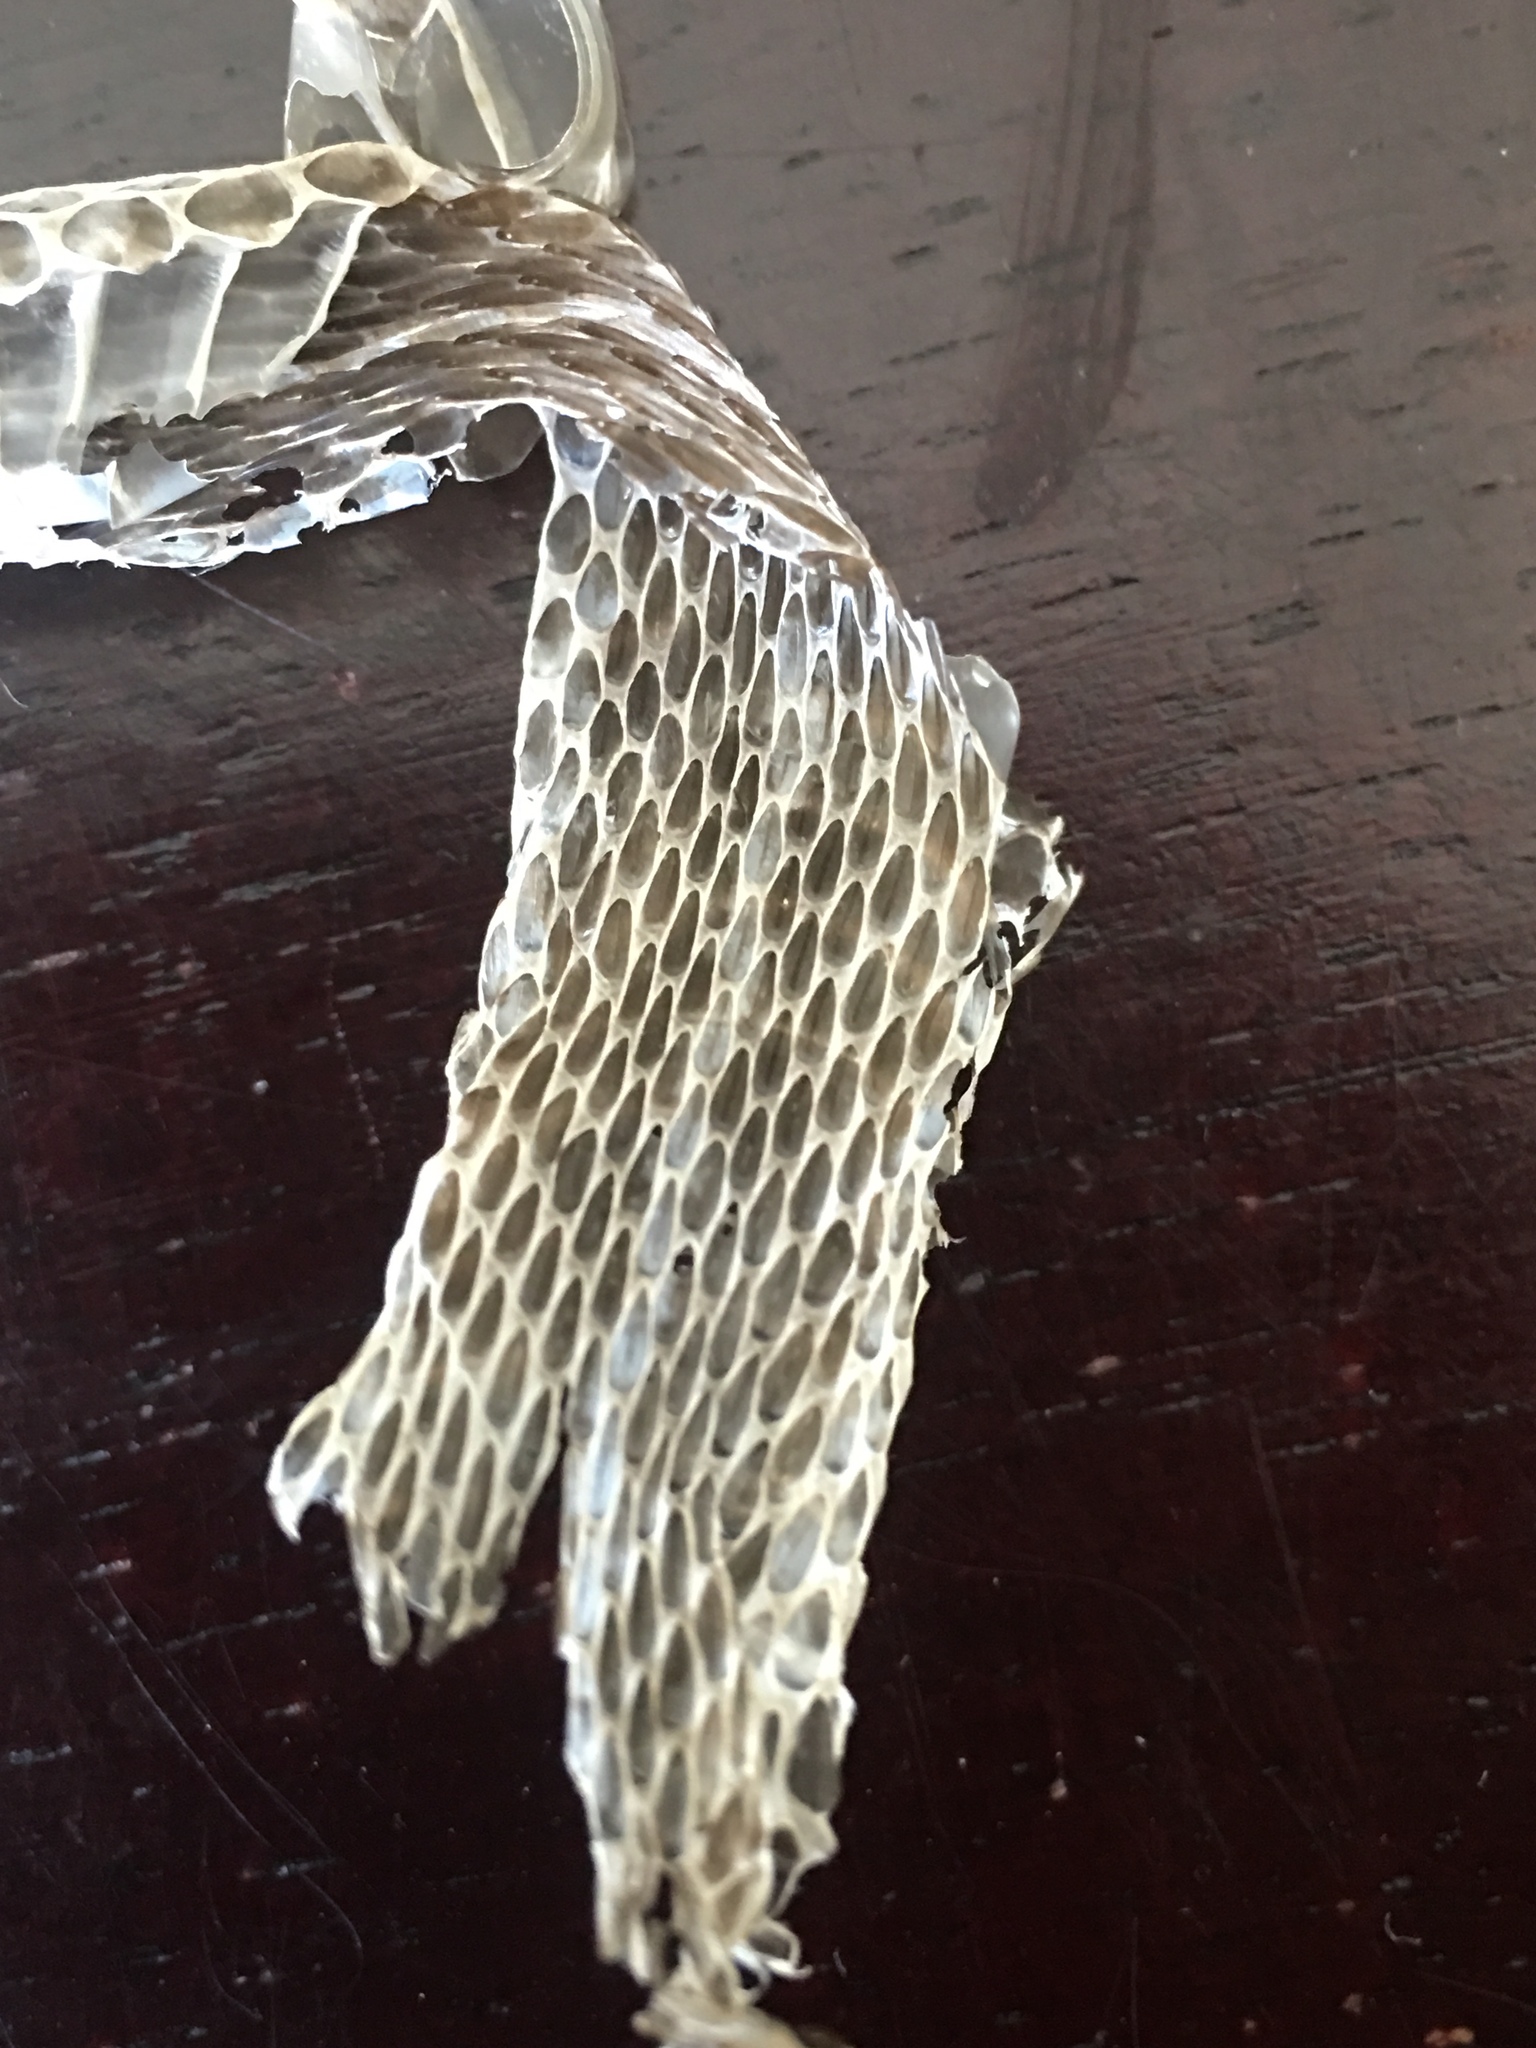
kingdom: Animalia
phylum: Chordata
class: Squamata
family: Colubridae
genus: Thamnophis
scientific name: Thamnophis sirtalis
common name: Common garter snake
